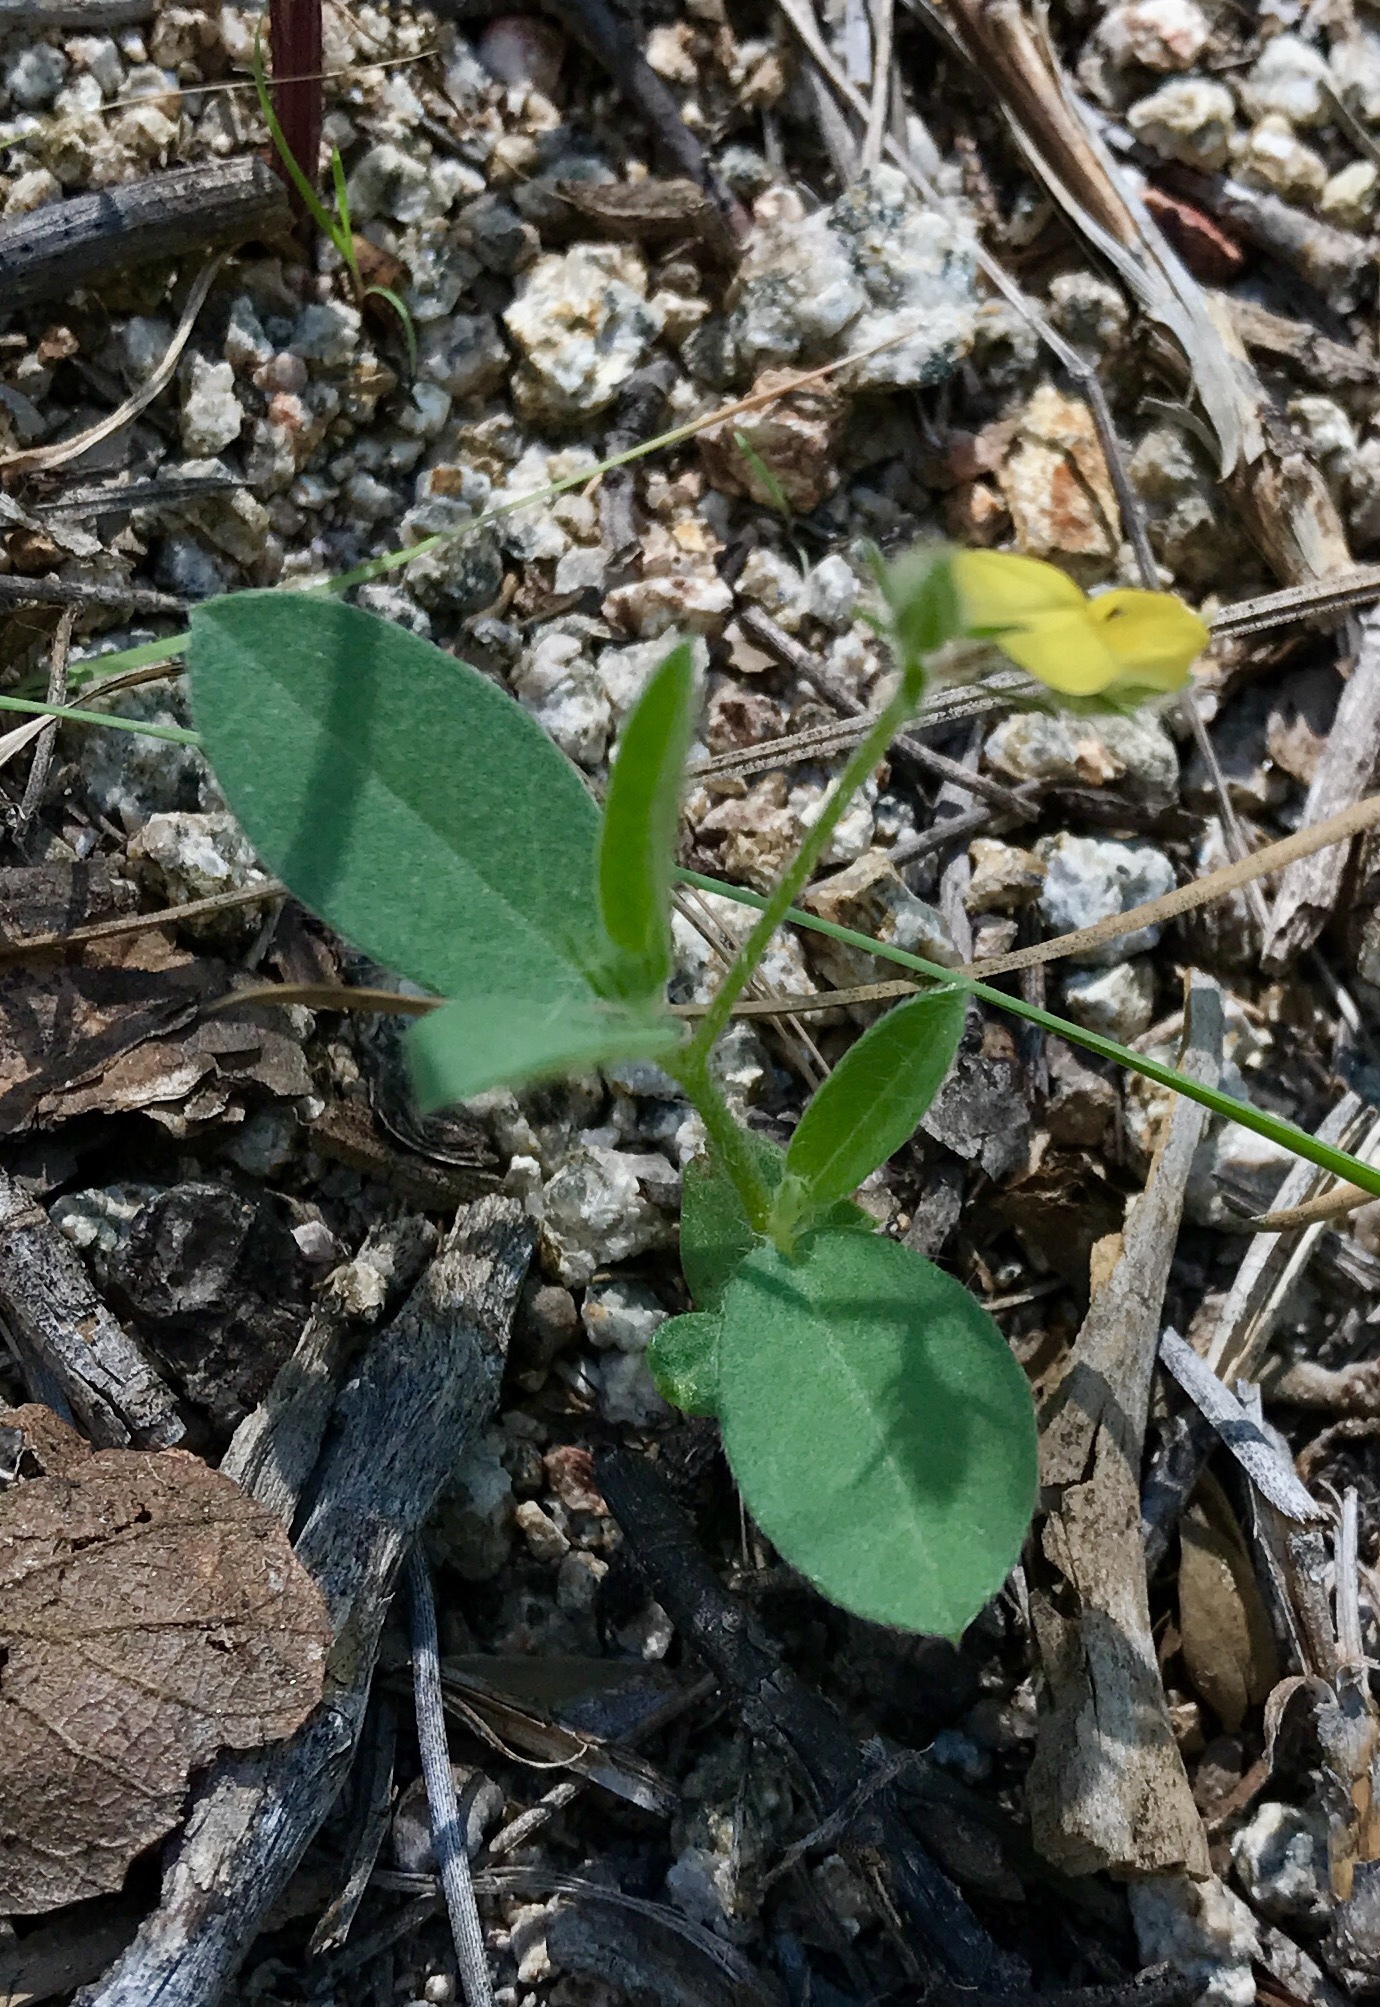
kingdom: Plantae
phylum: Tracheophyta
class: Magnoliopsida
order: Fabales
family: Fabaceae
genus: Crotalaria
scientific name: Crotalaria sagittalis
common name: Arrowhead rattlebox
